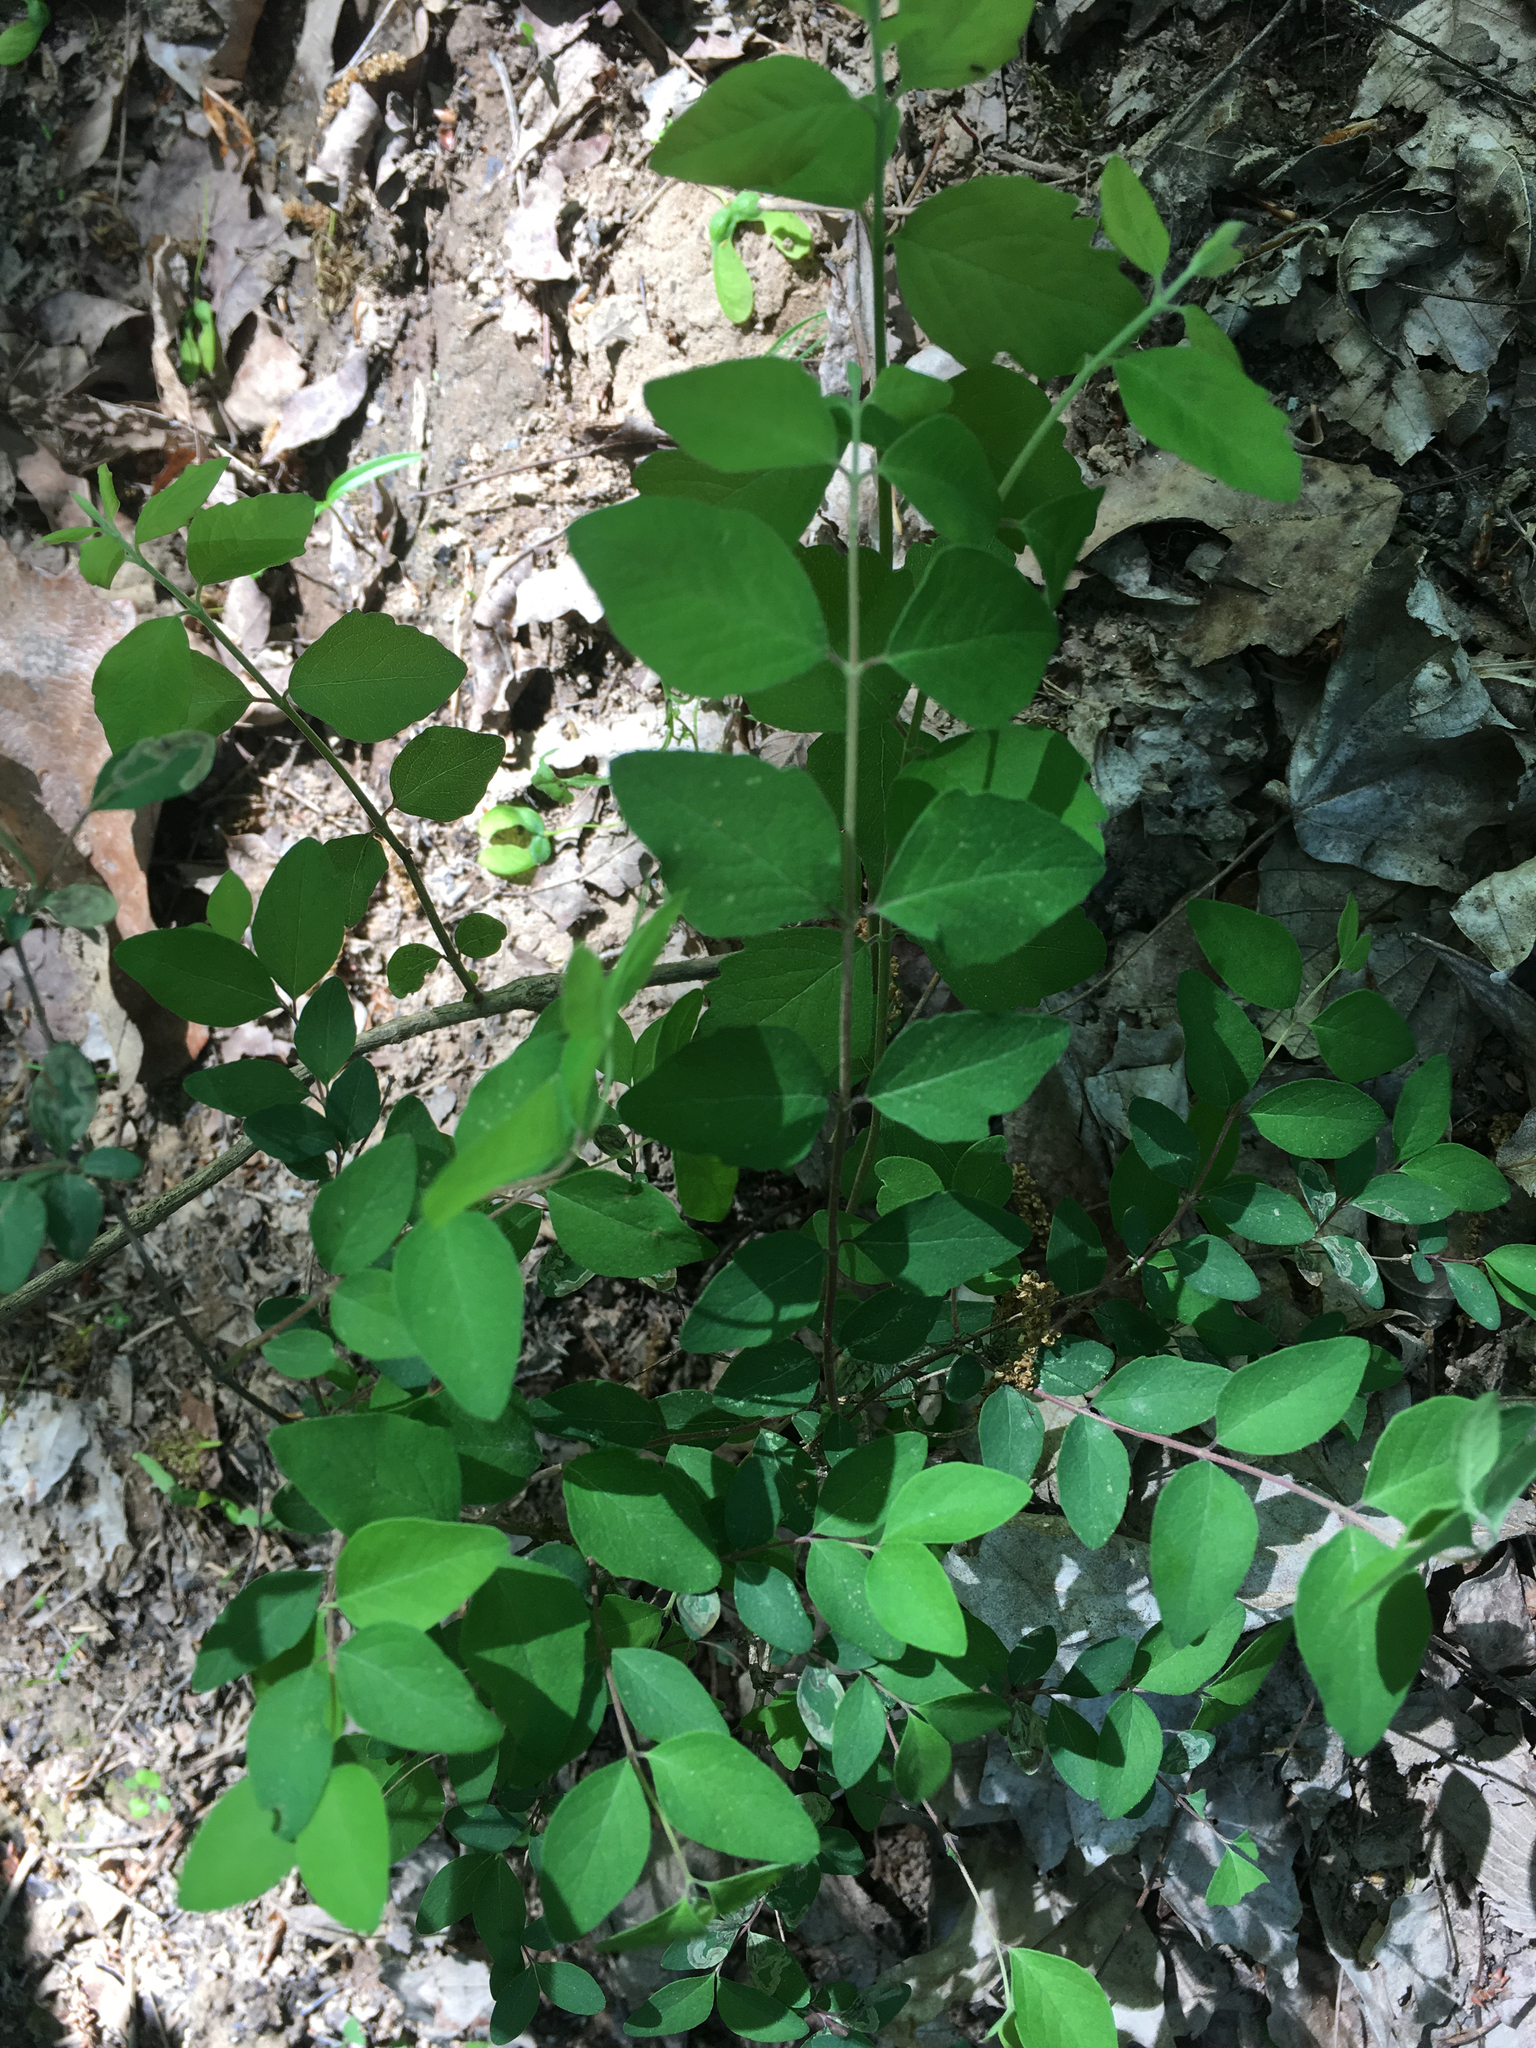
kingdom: Plantae
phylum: Tracheophyta
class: Magnoliopsida
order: Dipsacales
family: Caprifoliaceae
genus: Symphoricarpos
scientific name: Symphoricarpos orbiculatus
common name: Coralberry
